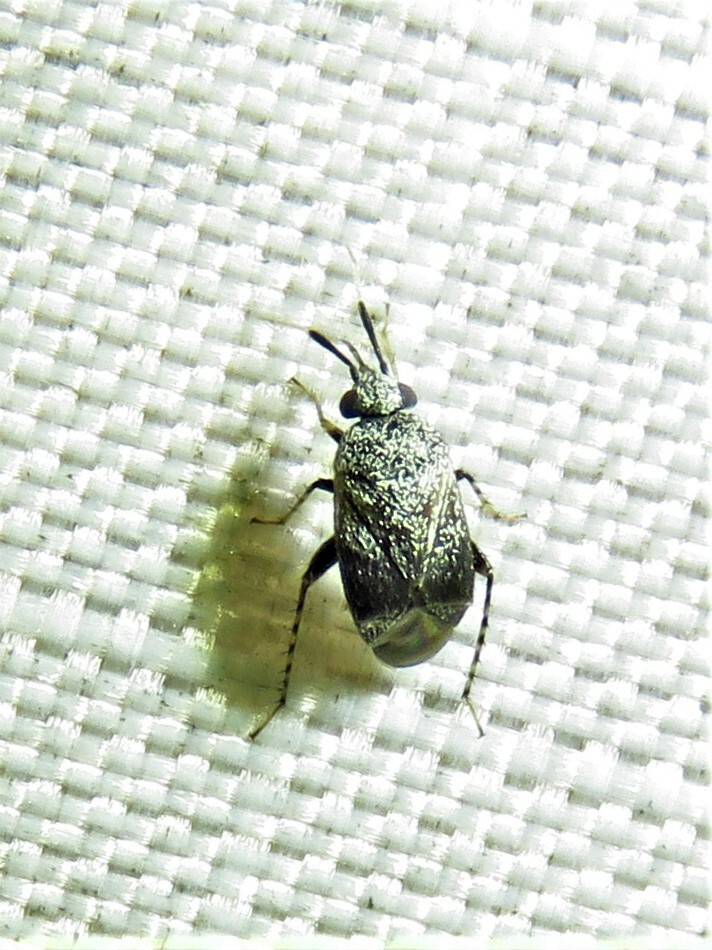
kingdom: Animalia
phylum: Arthropoda
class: Insecta
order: Hemiptera
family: Miridae
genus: Rhinacloa
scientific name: Rhinacloa forticornis
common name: Brown cotton mirid
